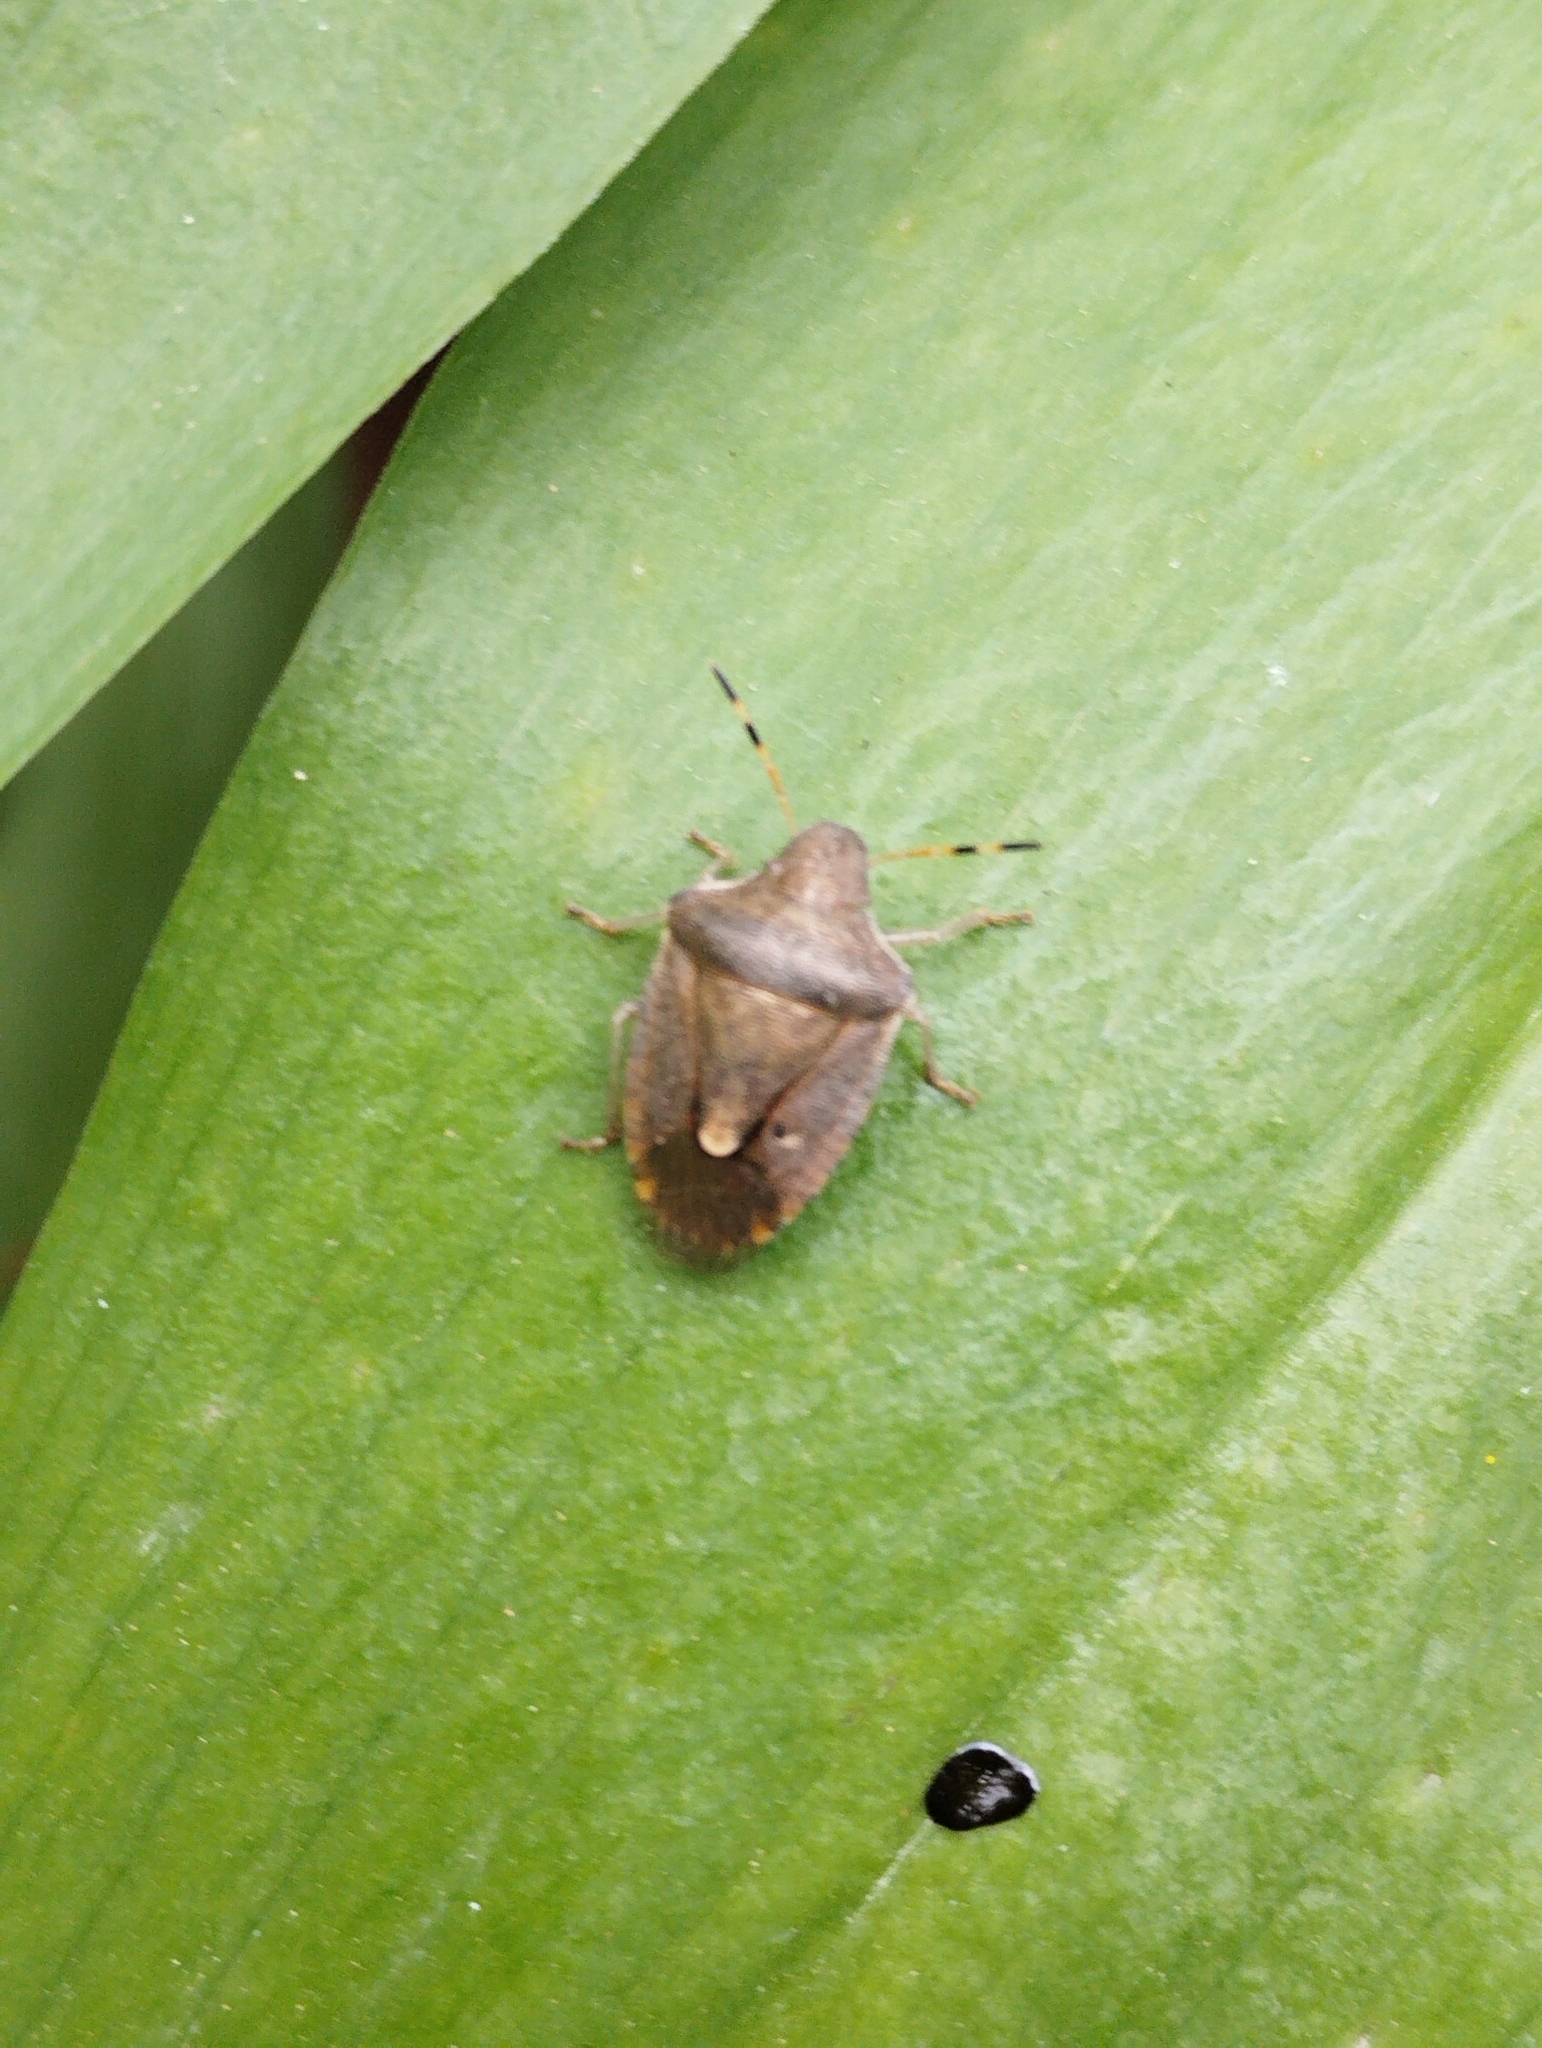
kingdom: Animalia
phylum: Arthropoda
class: Insecta
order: Hemiptera
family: Pentatomidae
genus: Holcostethus
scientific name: Holcostethus strictus
